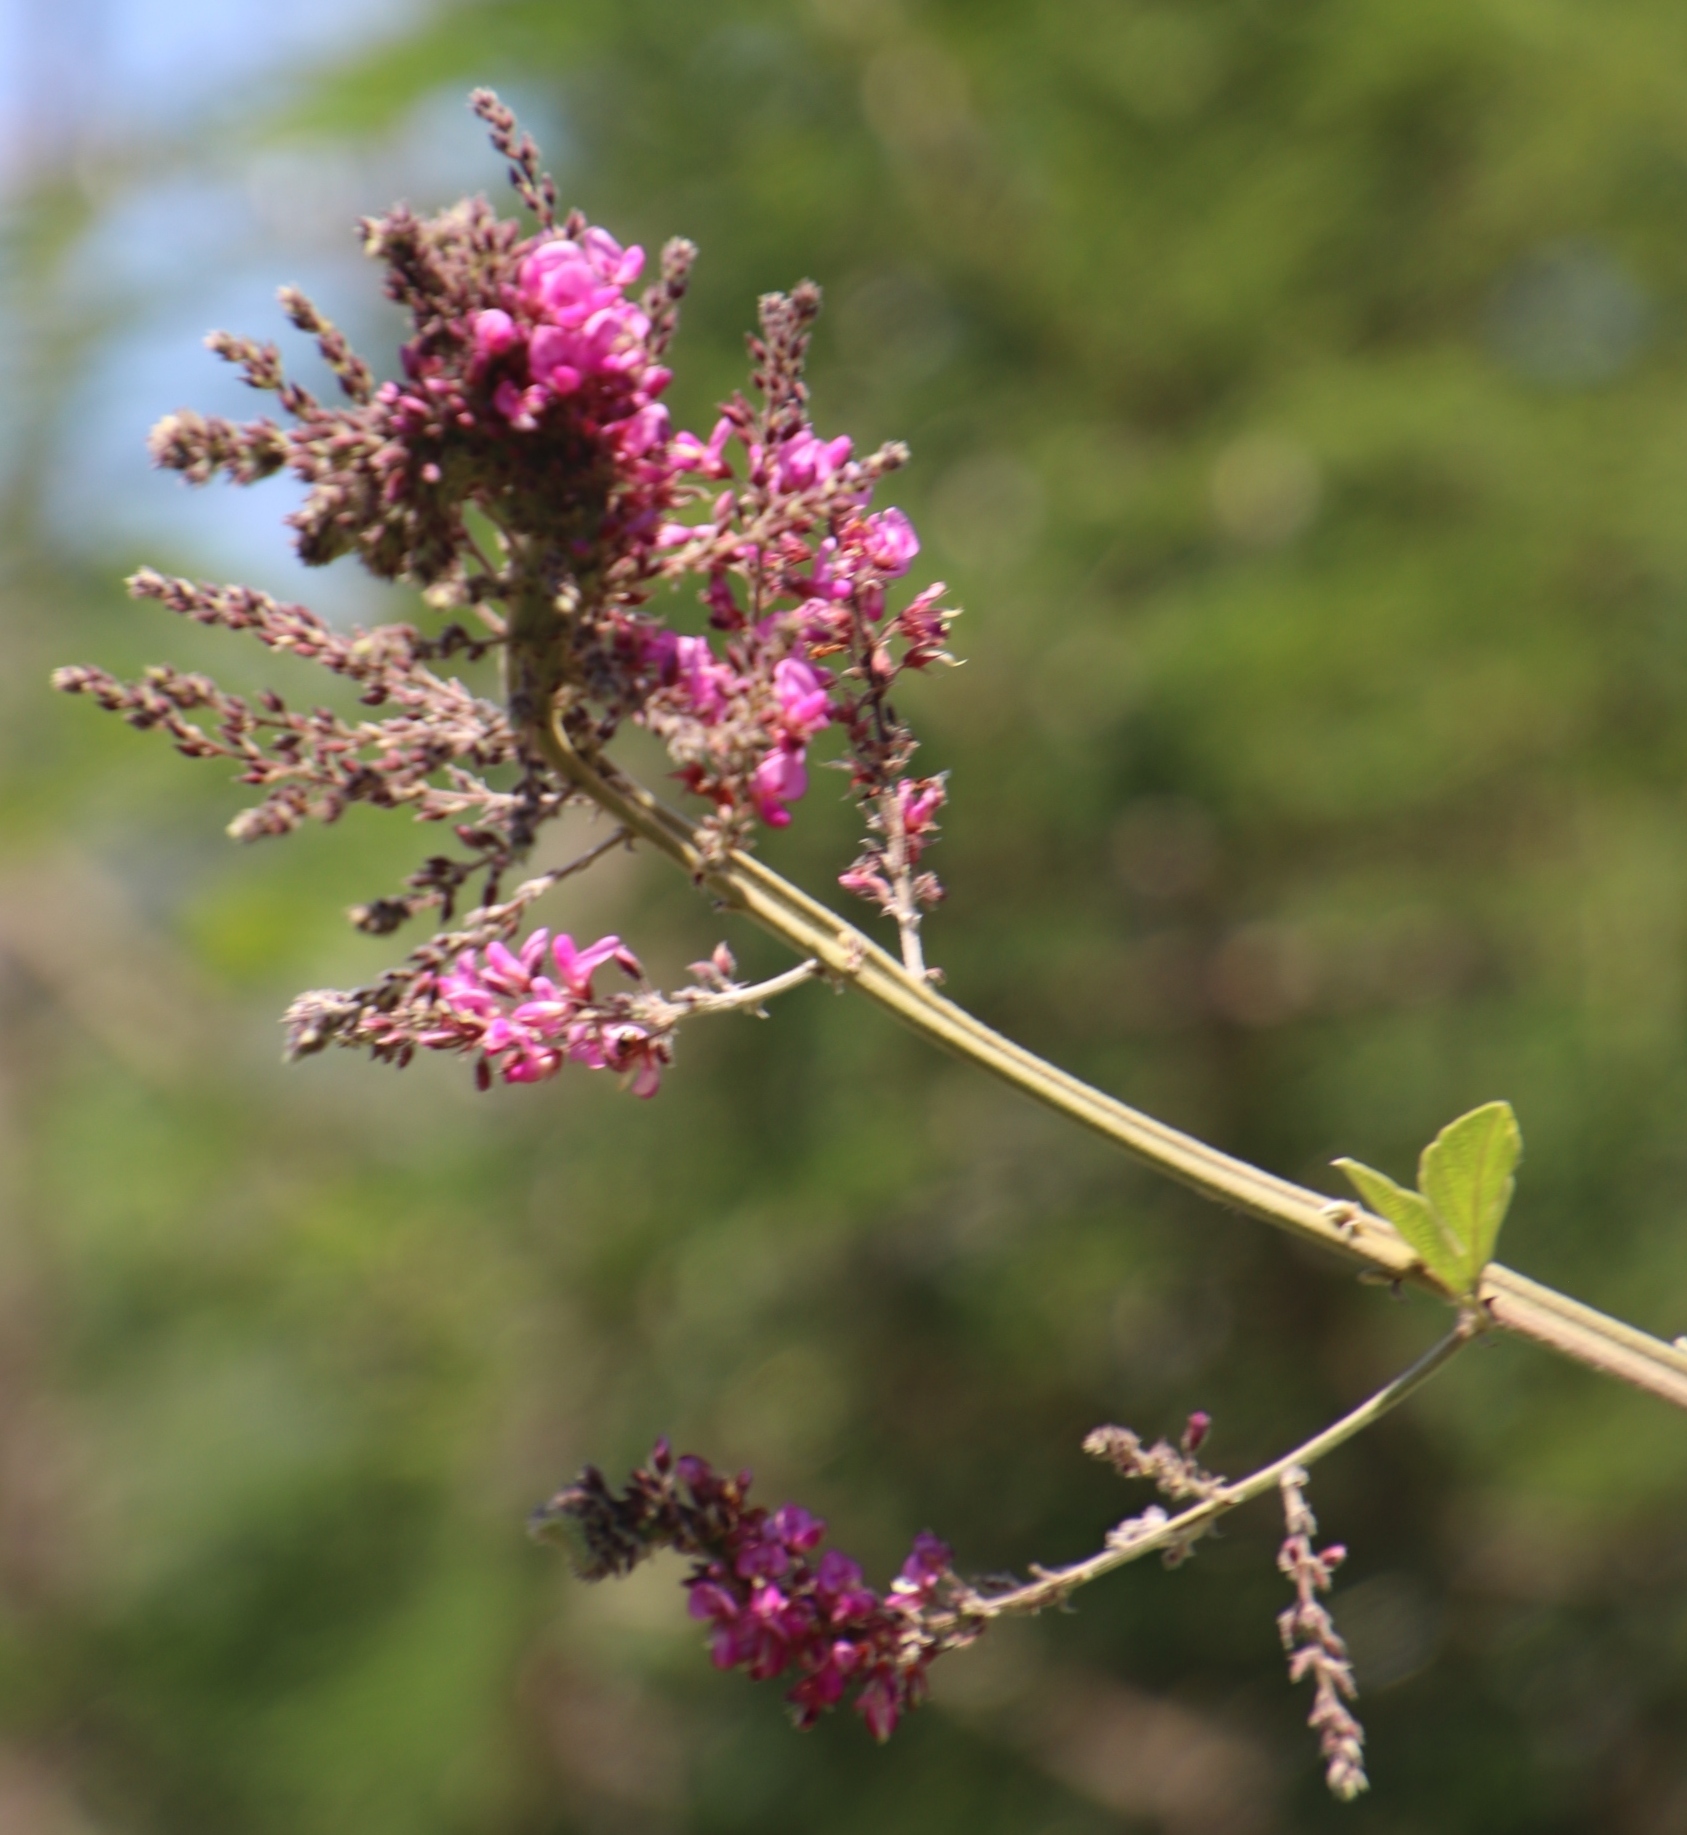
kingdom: Plantae
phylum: Tracheophyta
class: Magnoliopsida
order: Fabales
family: Fabaceae
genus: Pseudarthria
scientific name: Pseudarthria hookeri
